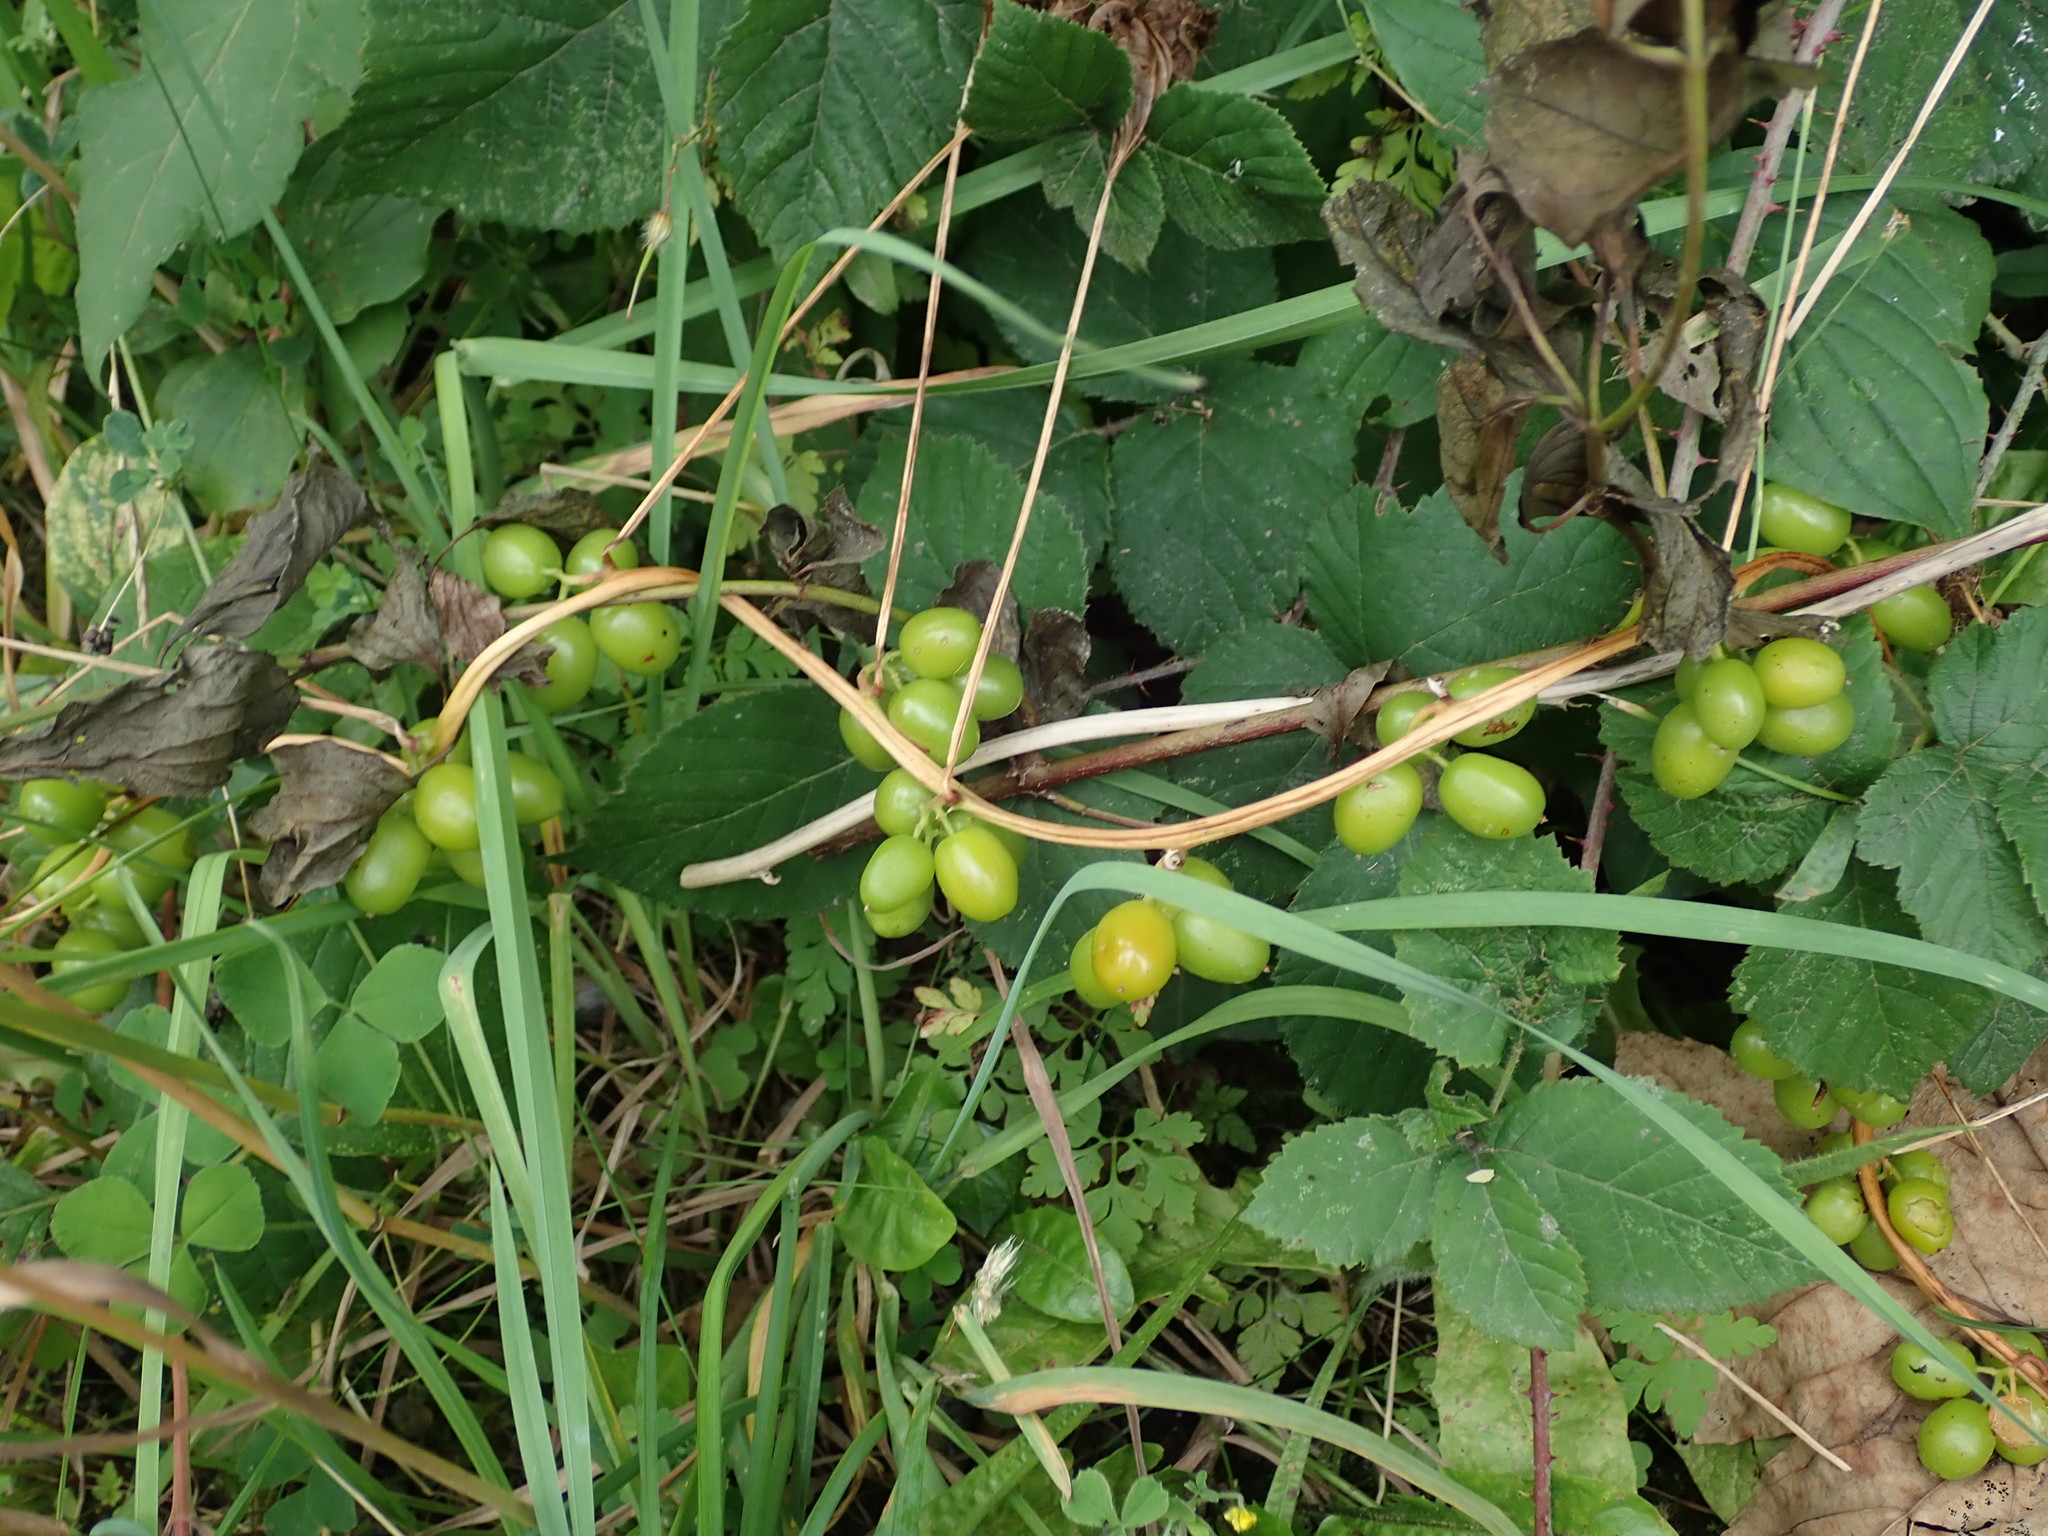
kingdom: Plantae
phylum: Tracheophyta
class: Liliopsida
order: Dioscoreales
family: Dioscoreaceae
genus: Dioscorea
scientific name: Dioscorea communis
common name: Black-bindweed
